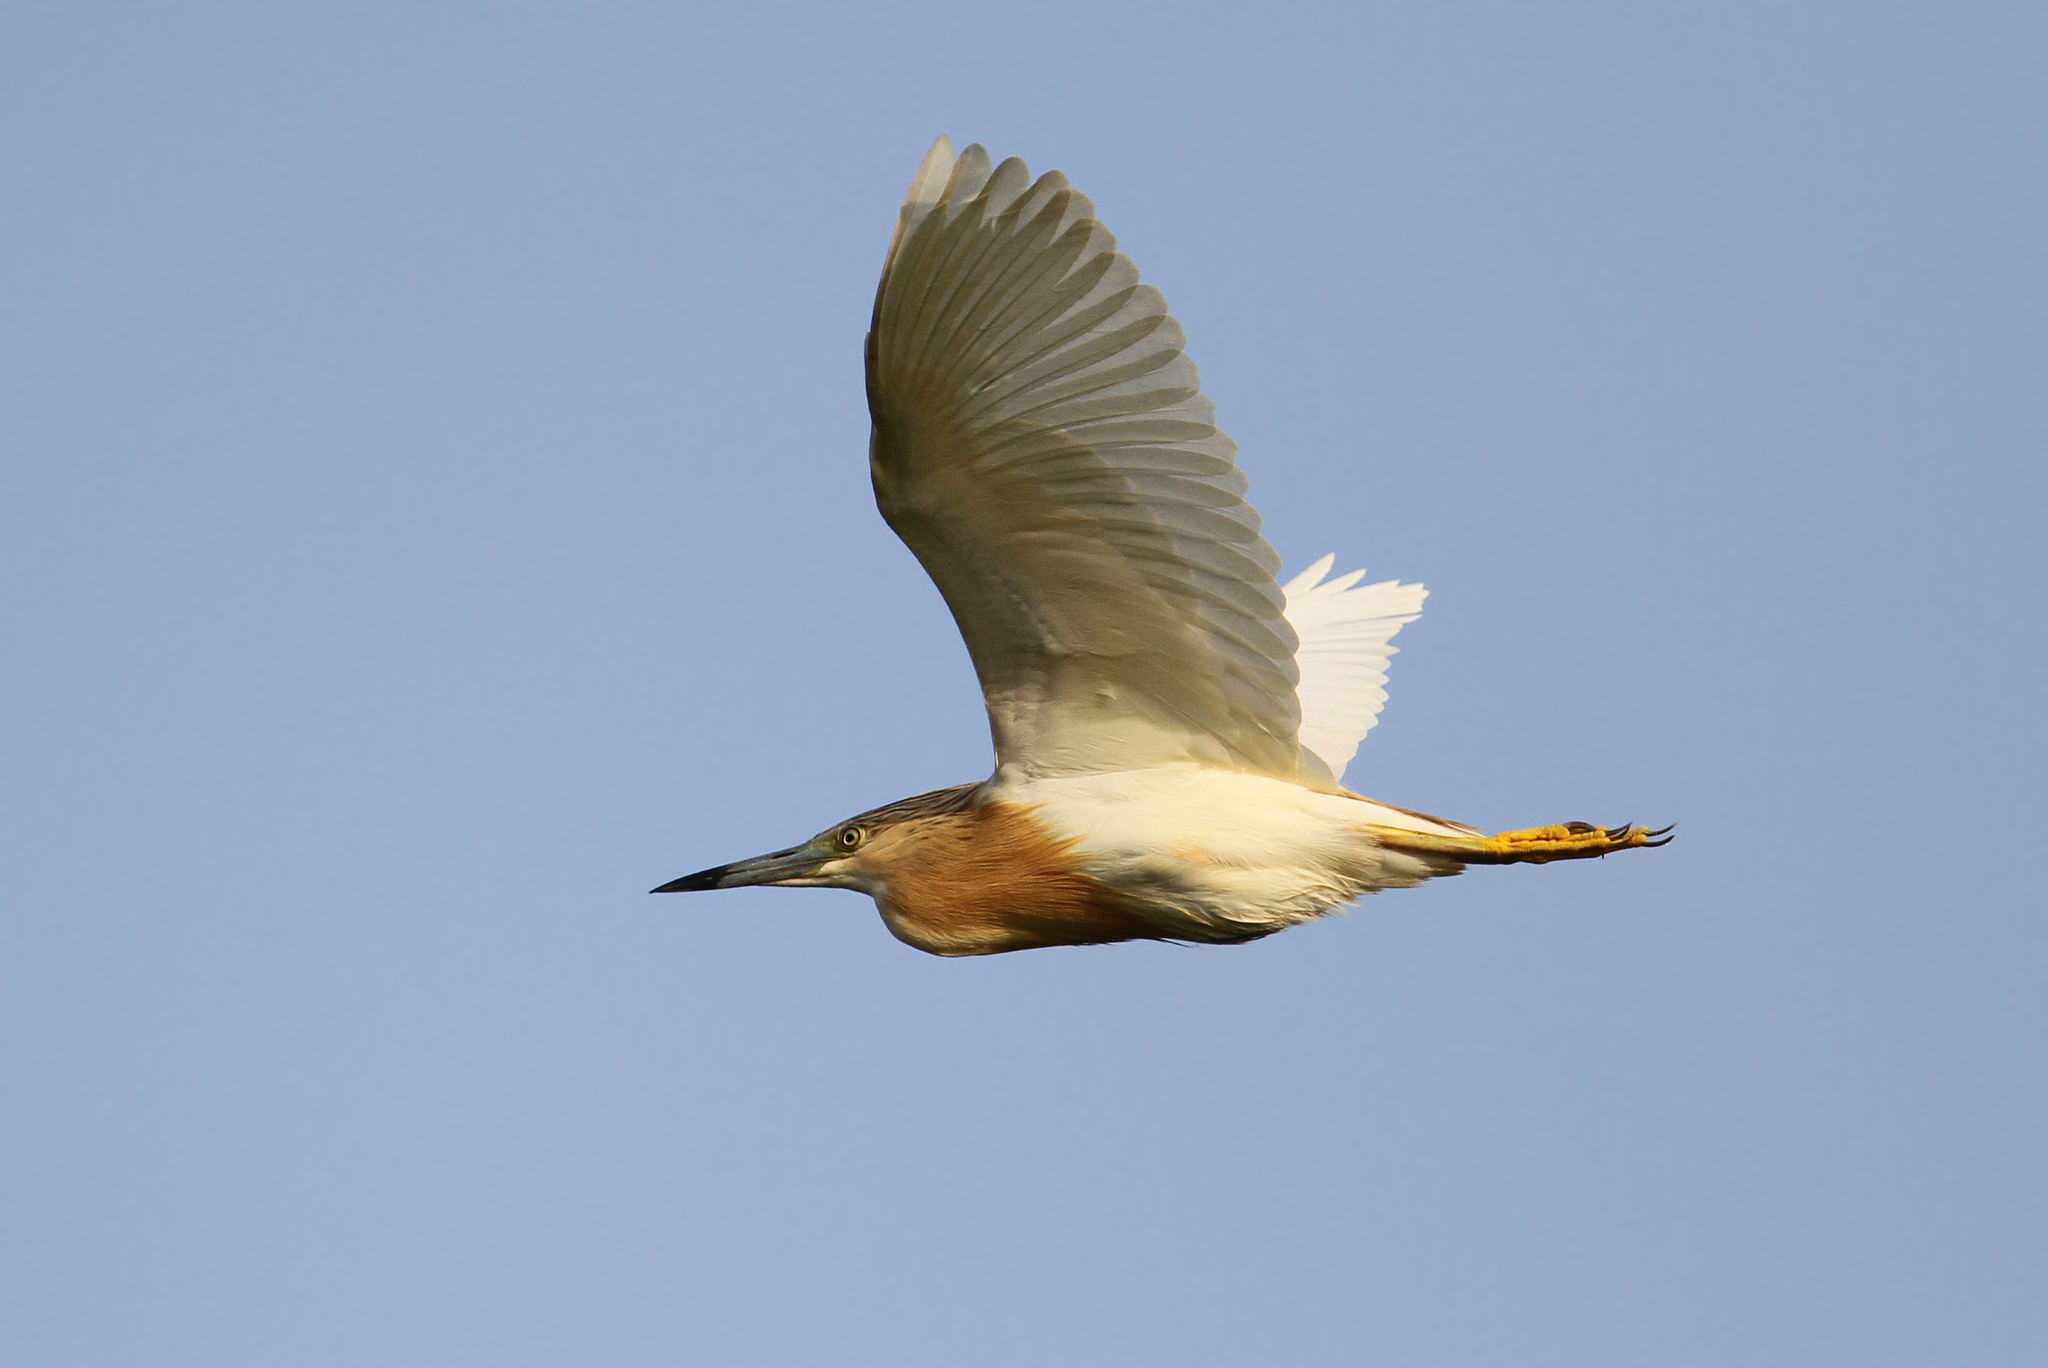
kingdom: Animalia
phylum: Chordata
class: Aves
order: Pelecaniformes
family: Ardeidae
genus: Ardeola
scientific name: Ardeola ralloides
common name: Squacco heron
